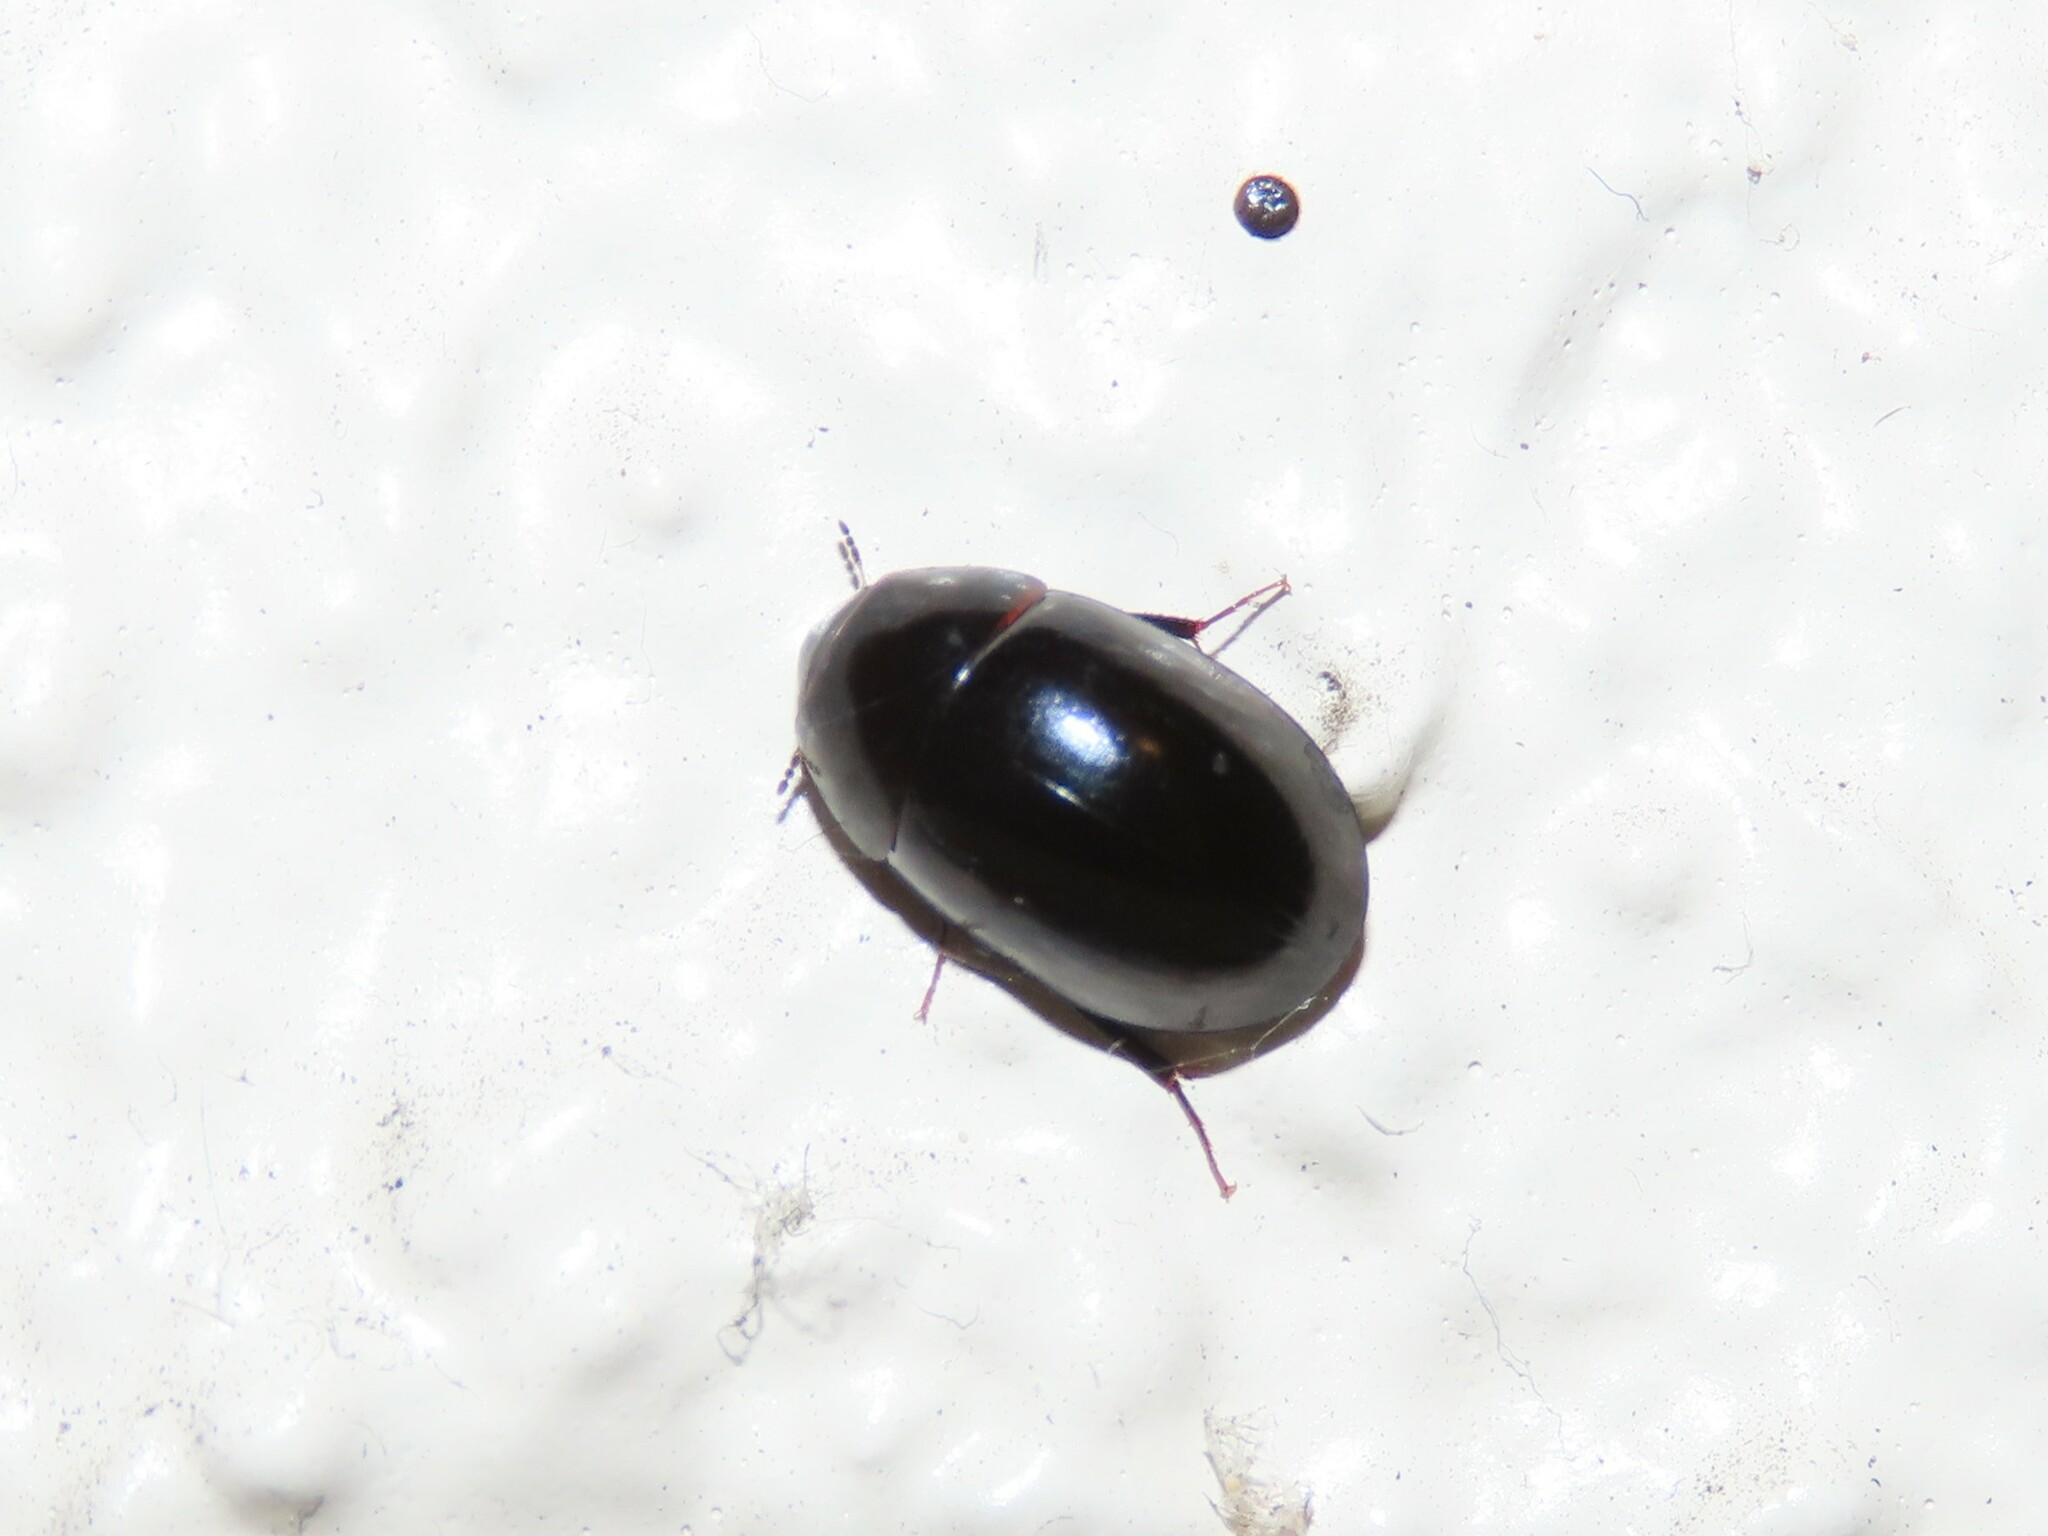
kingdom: Animalia
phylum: Arthropoda
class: Insecta
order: Coleoptera
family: Hydrophilidae
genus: Enochrus
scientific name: Enochrus
